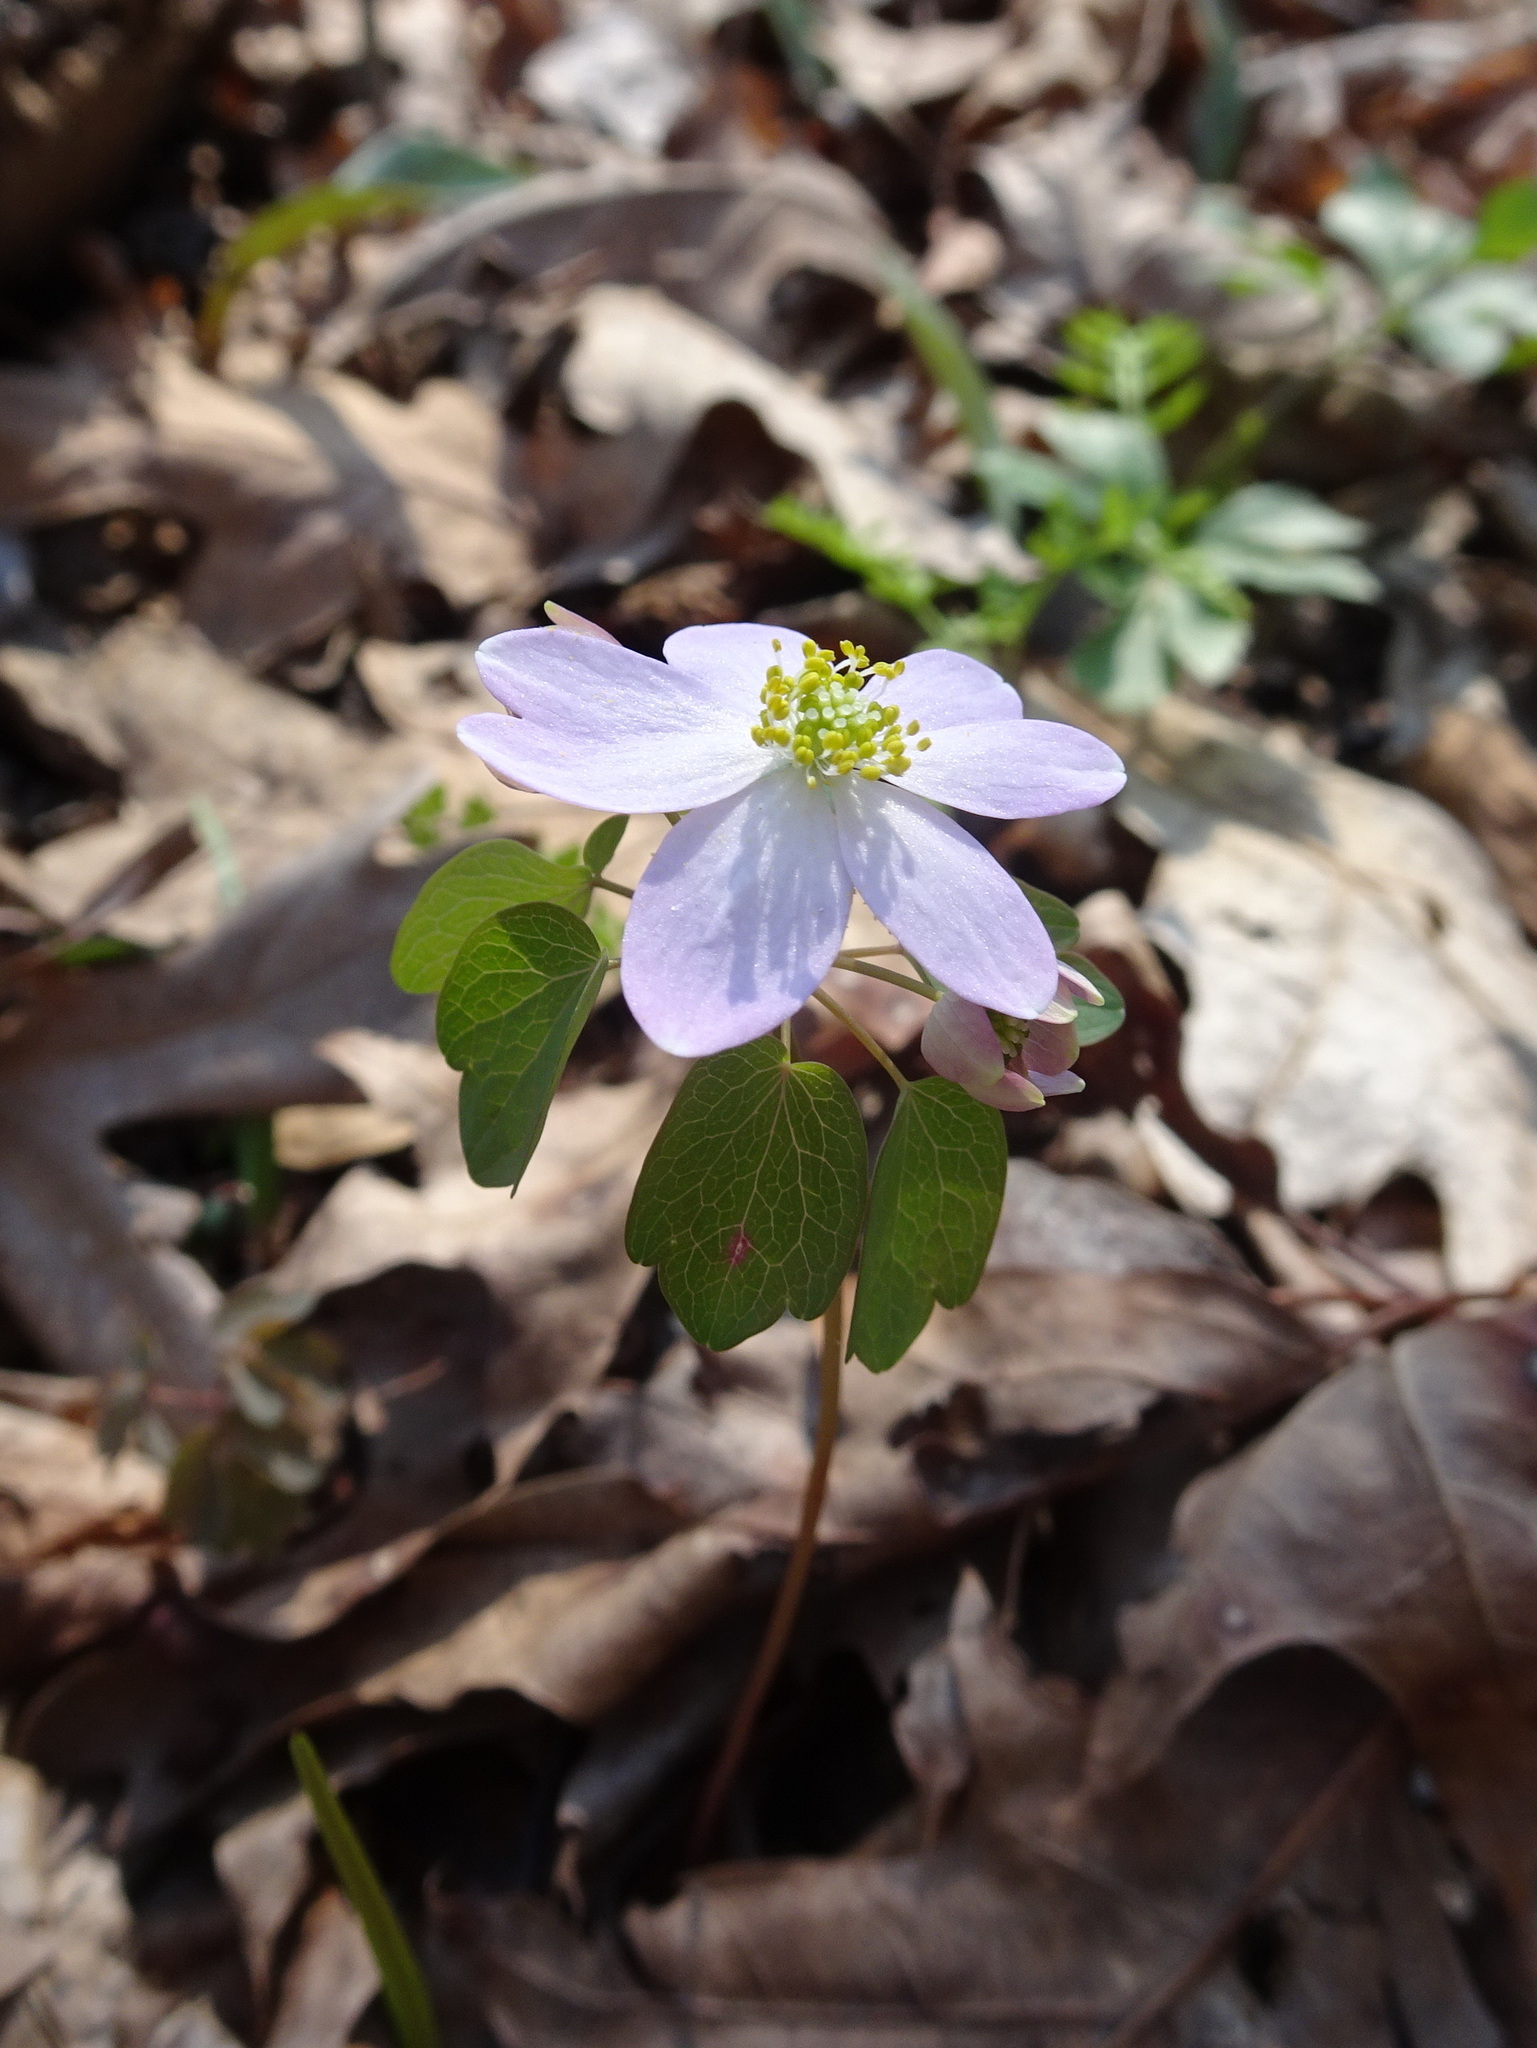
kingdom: Plantae
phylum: Tracheophyta
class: Magnoliopsida
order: Ranunculales
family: Ranunculaceae
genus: Thalictrum
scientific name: Thalictrum thalictroides
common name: Rue-anemone
